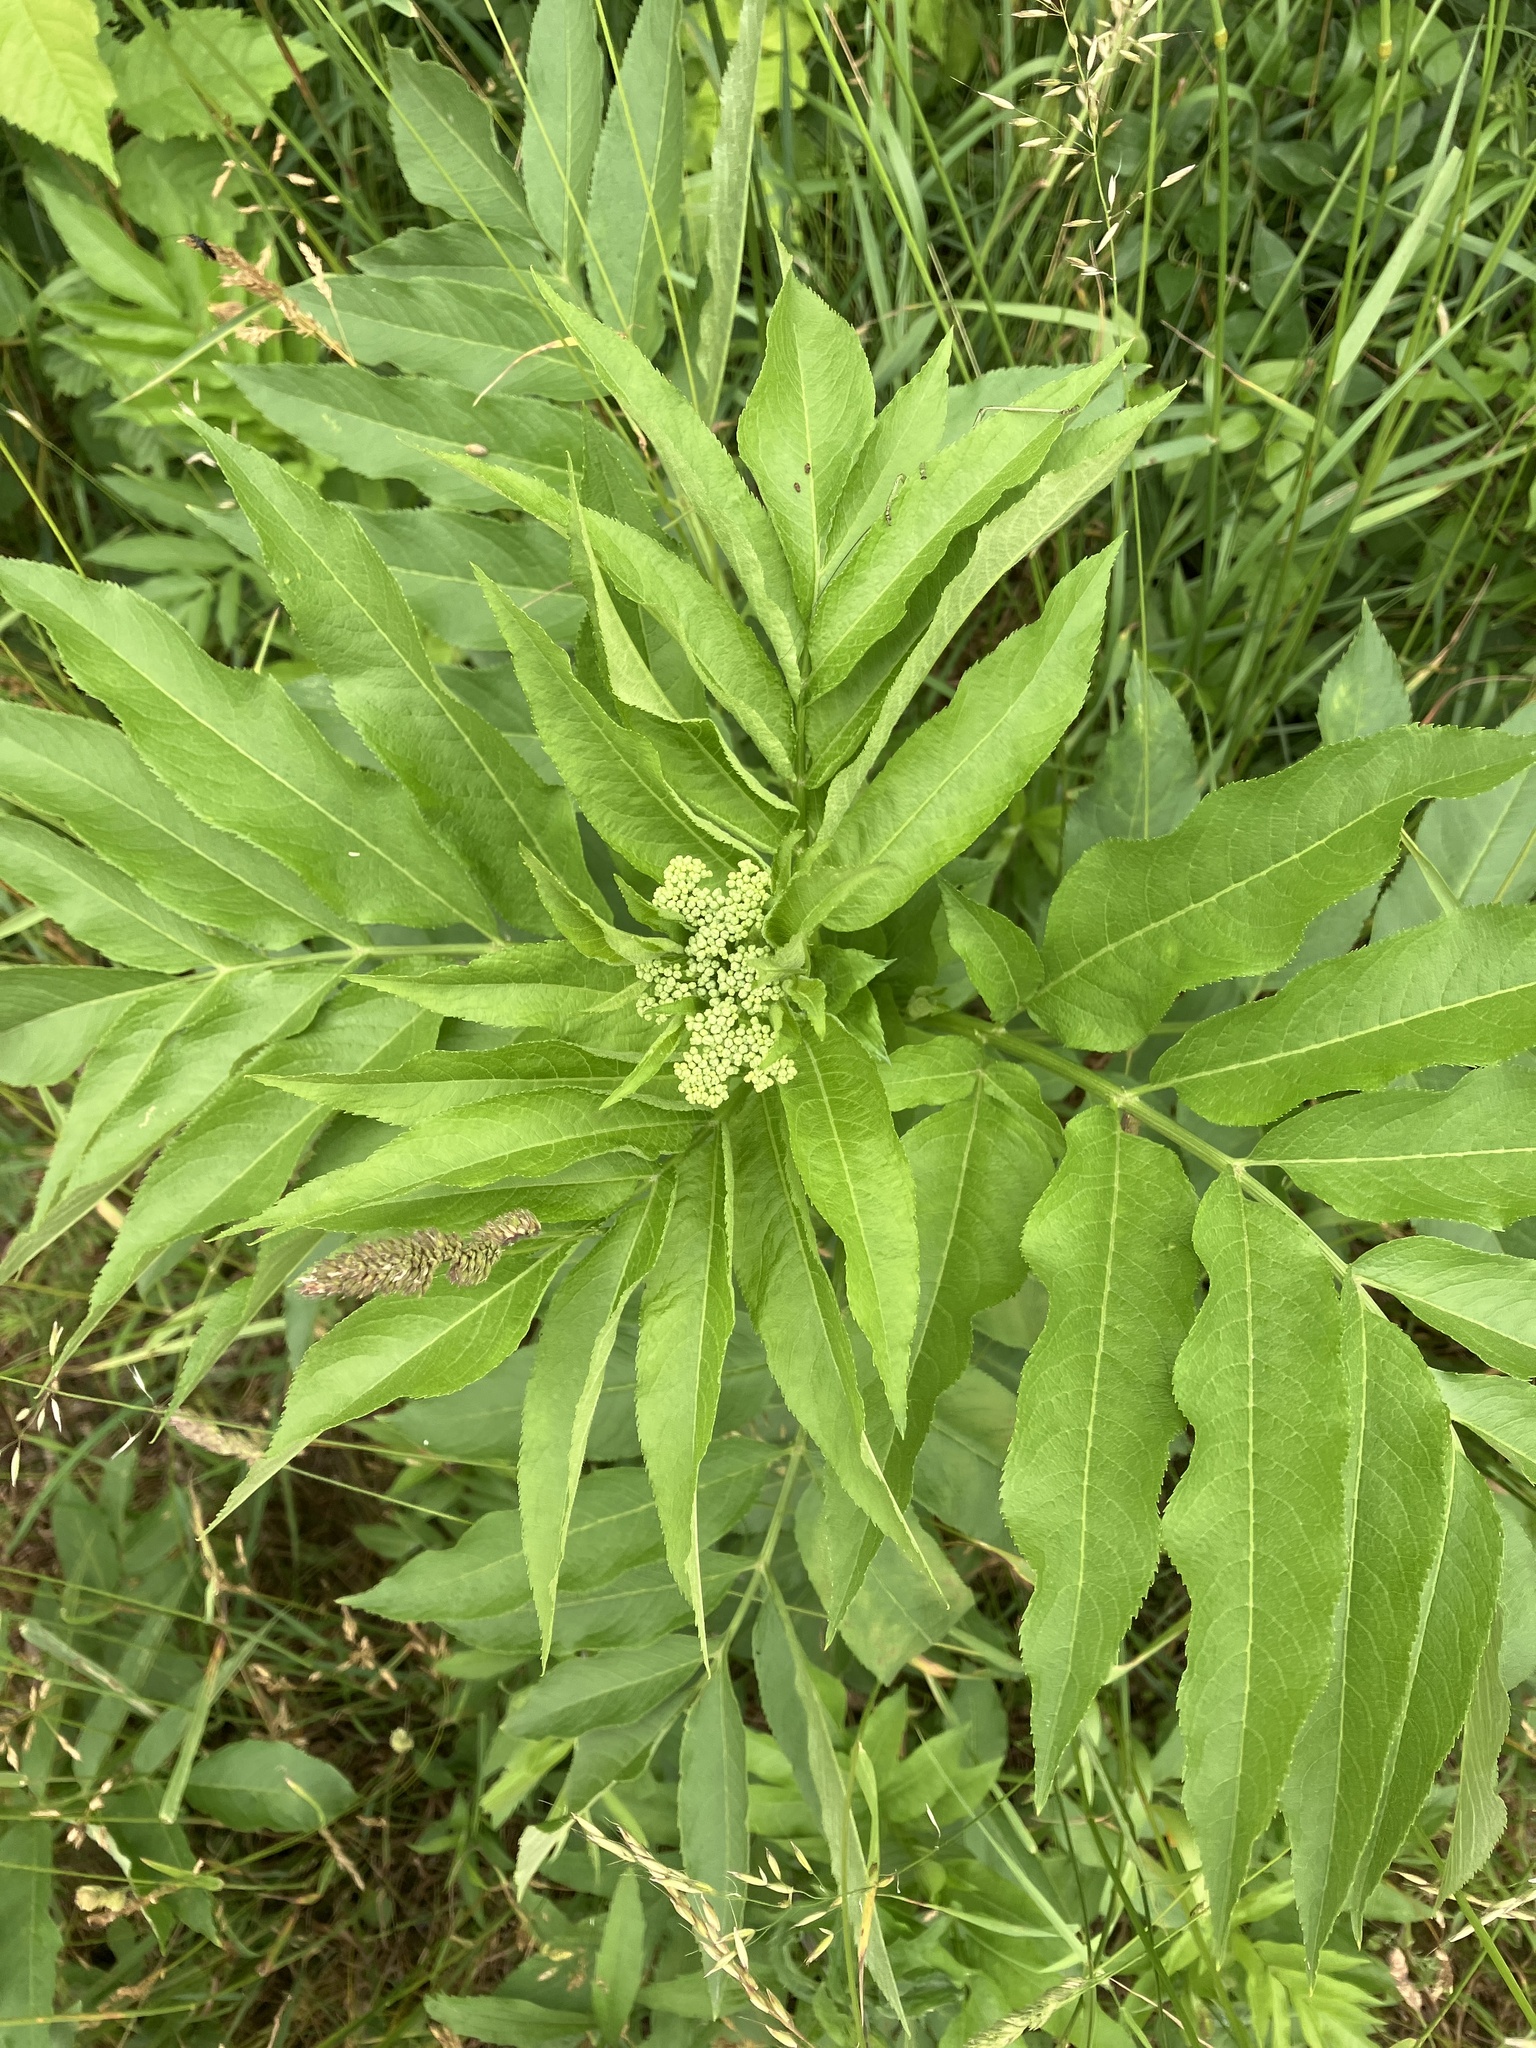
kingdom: Plantae
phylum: Tracheophyta
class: Magnoliopsida
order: Dipsacales
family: Viburnaceae
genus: Sambucus
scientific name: Sambucus ebulus
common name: Dwarf elder
